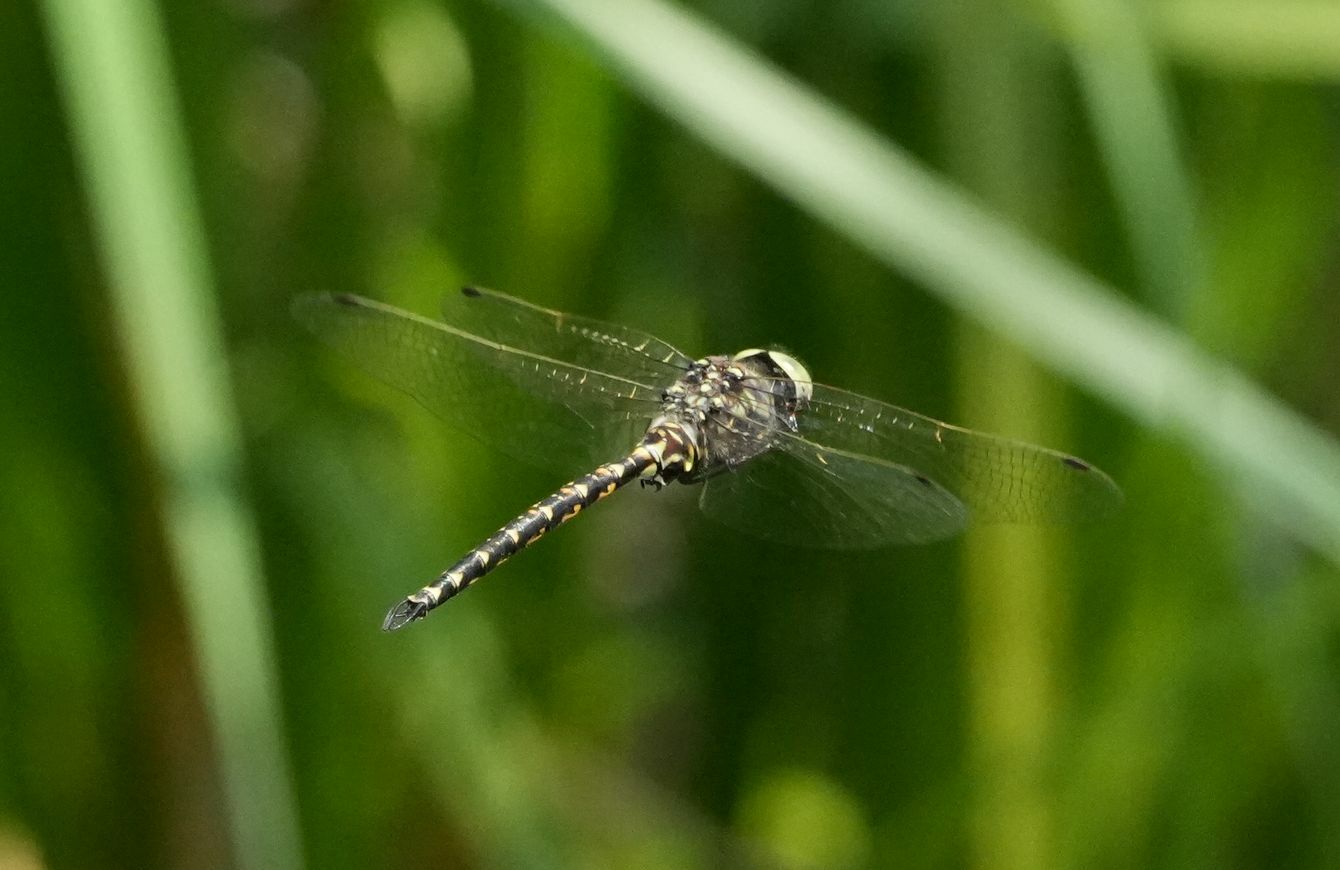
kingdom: Animalia
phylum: Arthropoda
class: Insecta
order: Odonata
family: Aeshnidae
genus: Gomphaeschna
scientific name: Gomphaeschna furcillata
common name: Harlequin darner
